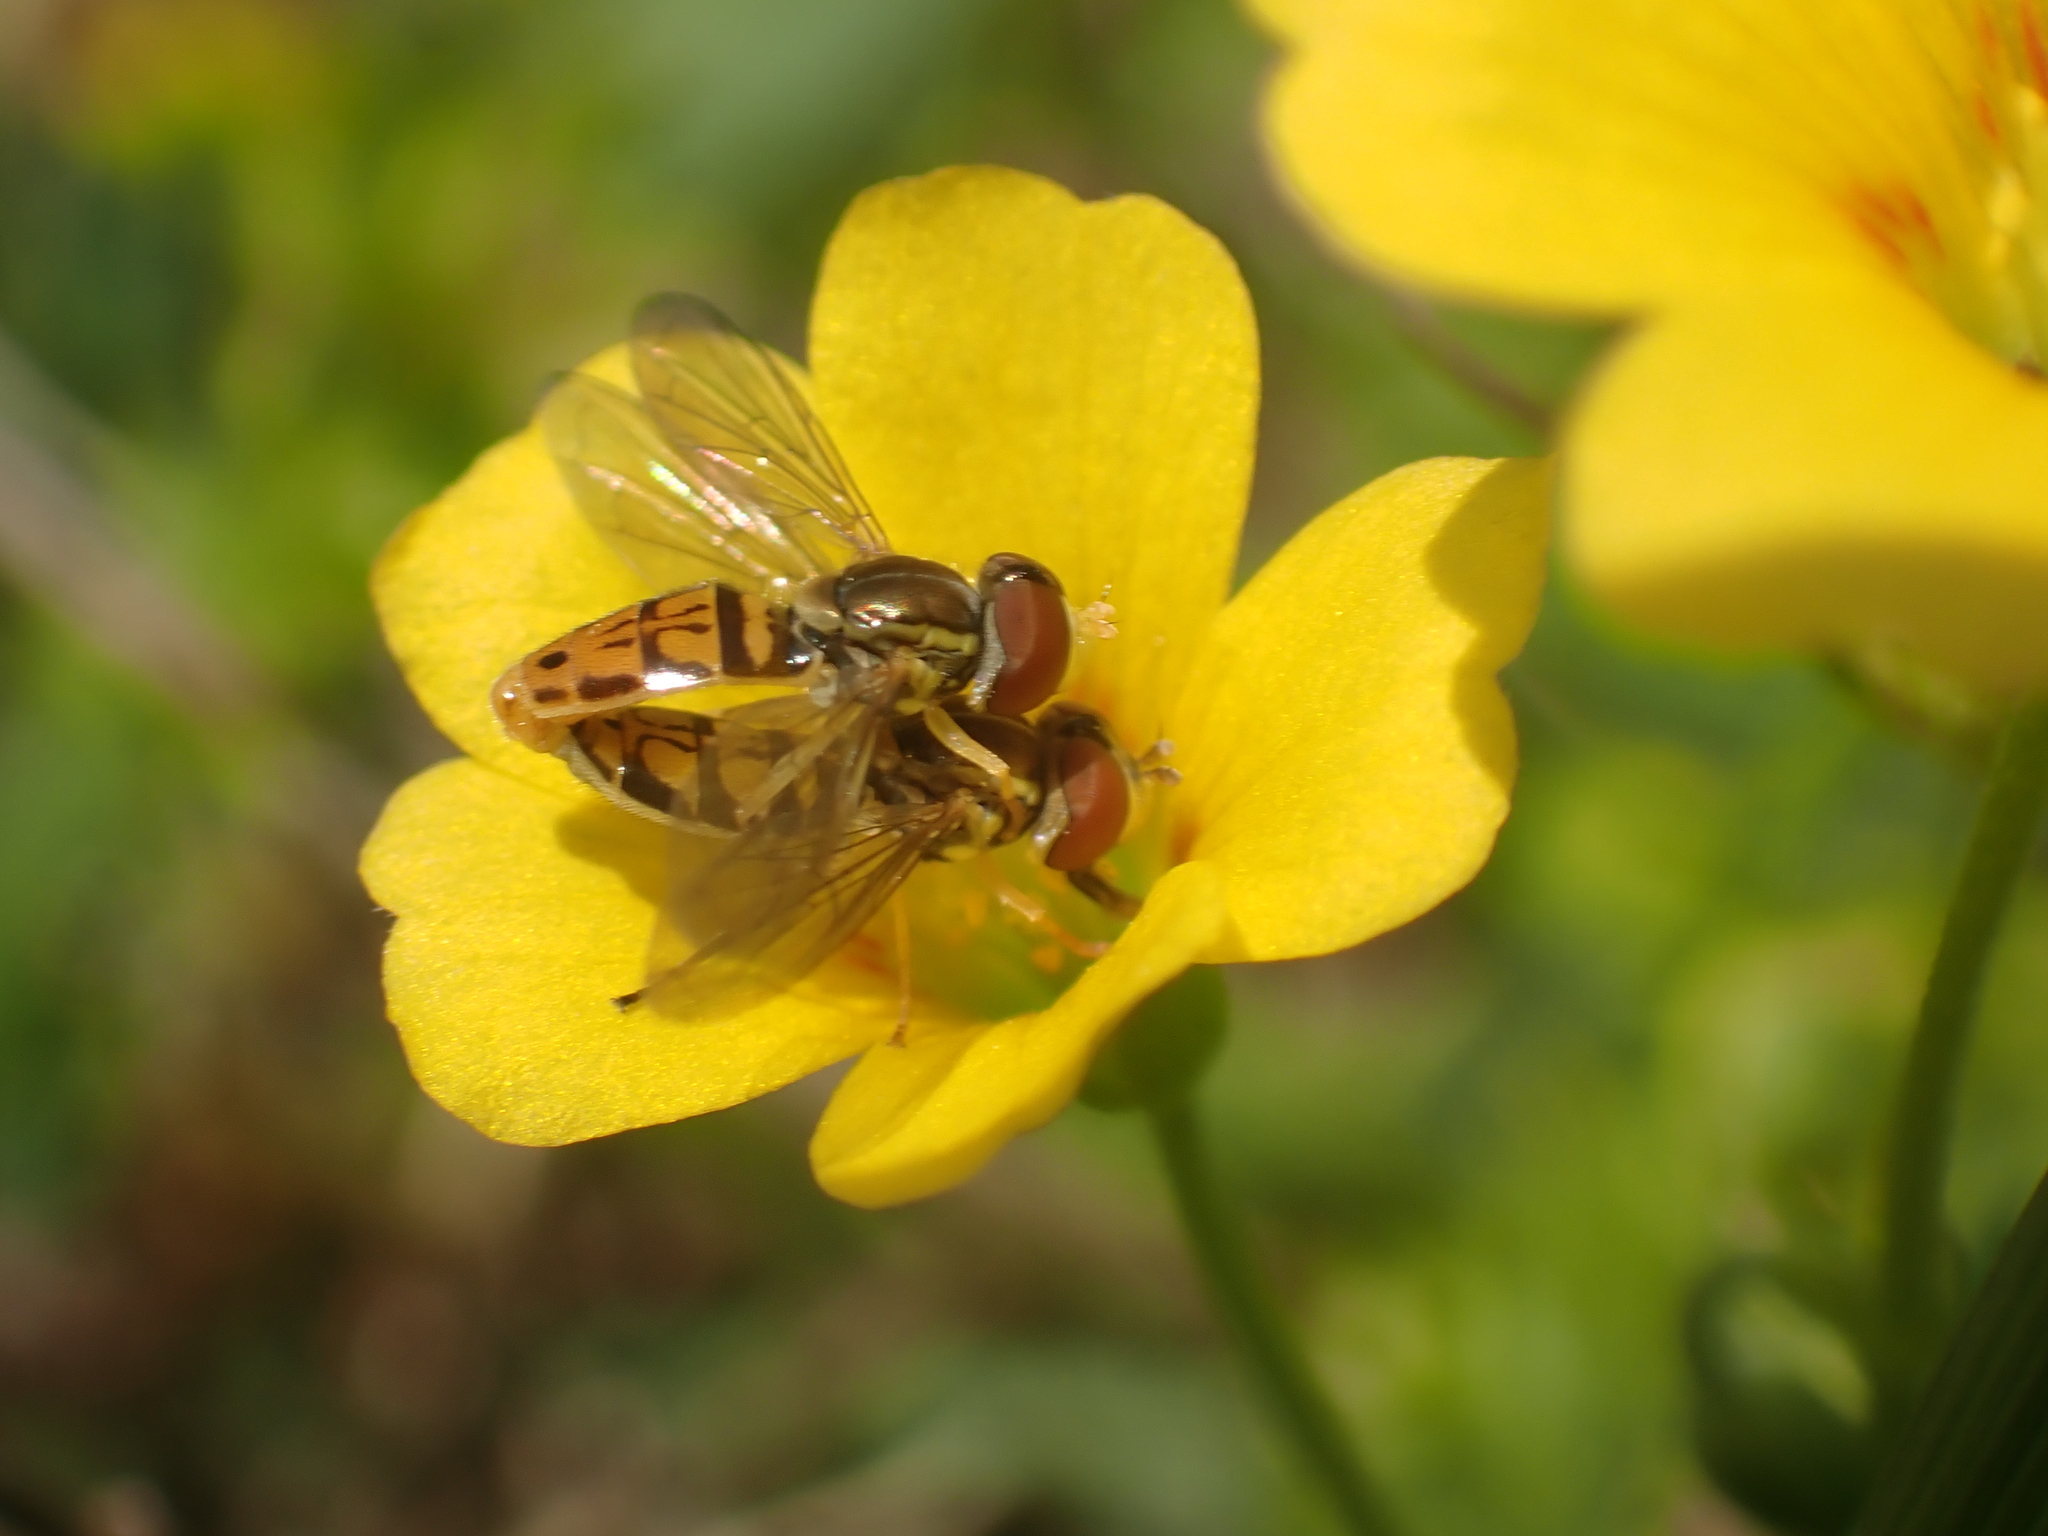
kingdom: Animalia
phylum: Arthropoda
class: Insecta
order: Diptera
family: Syrphidae
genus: Toxomerus
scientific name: Toxomerus marginatus
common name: Syrphid fly
